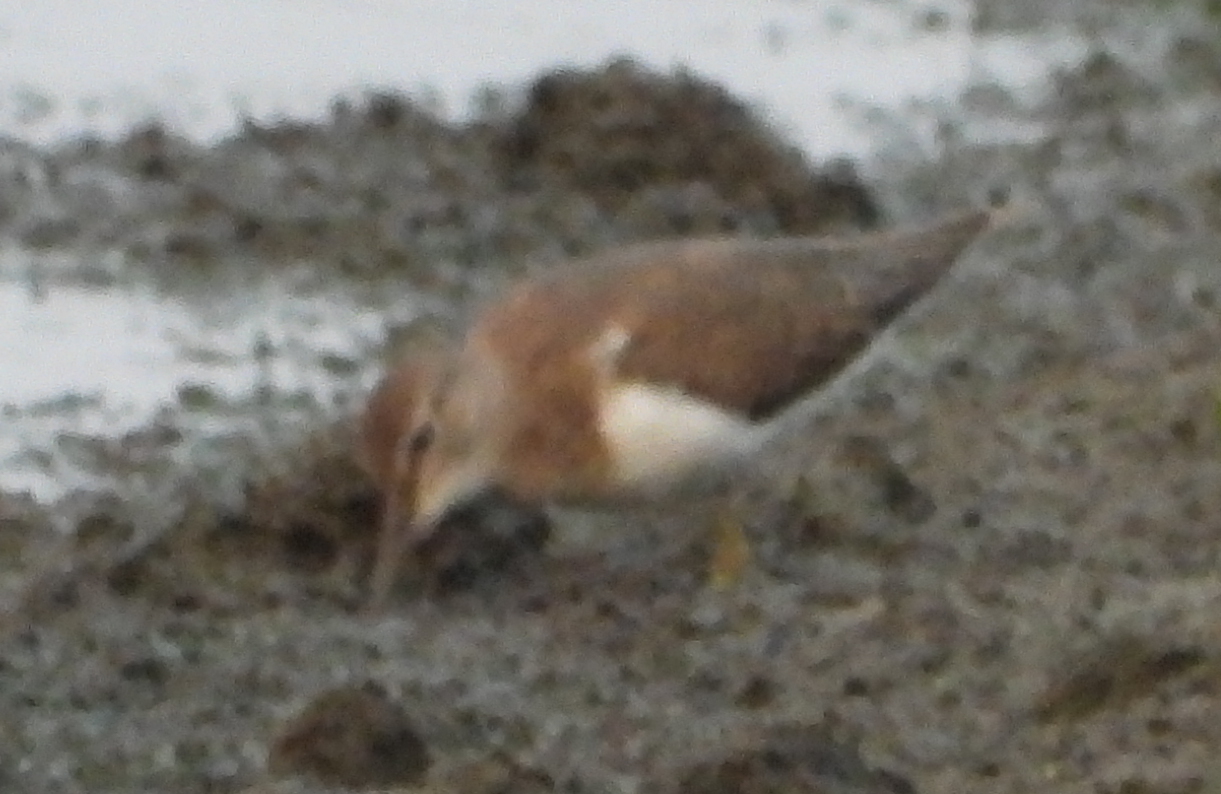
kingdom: Animalia
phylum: Chordata
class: Aves
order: Charadriiformes
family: Scolopacidae
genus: Actitis
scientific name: Actitis hypoleucos
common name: Common sandpiper
